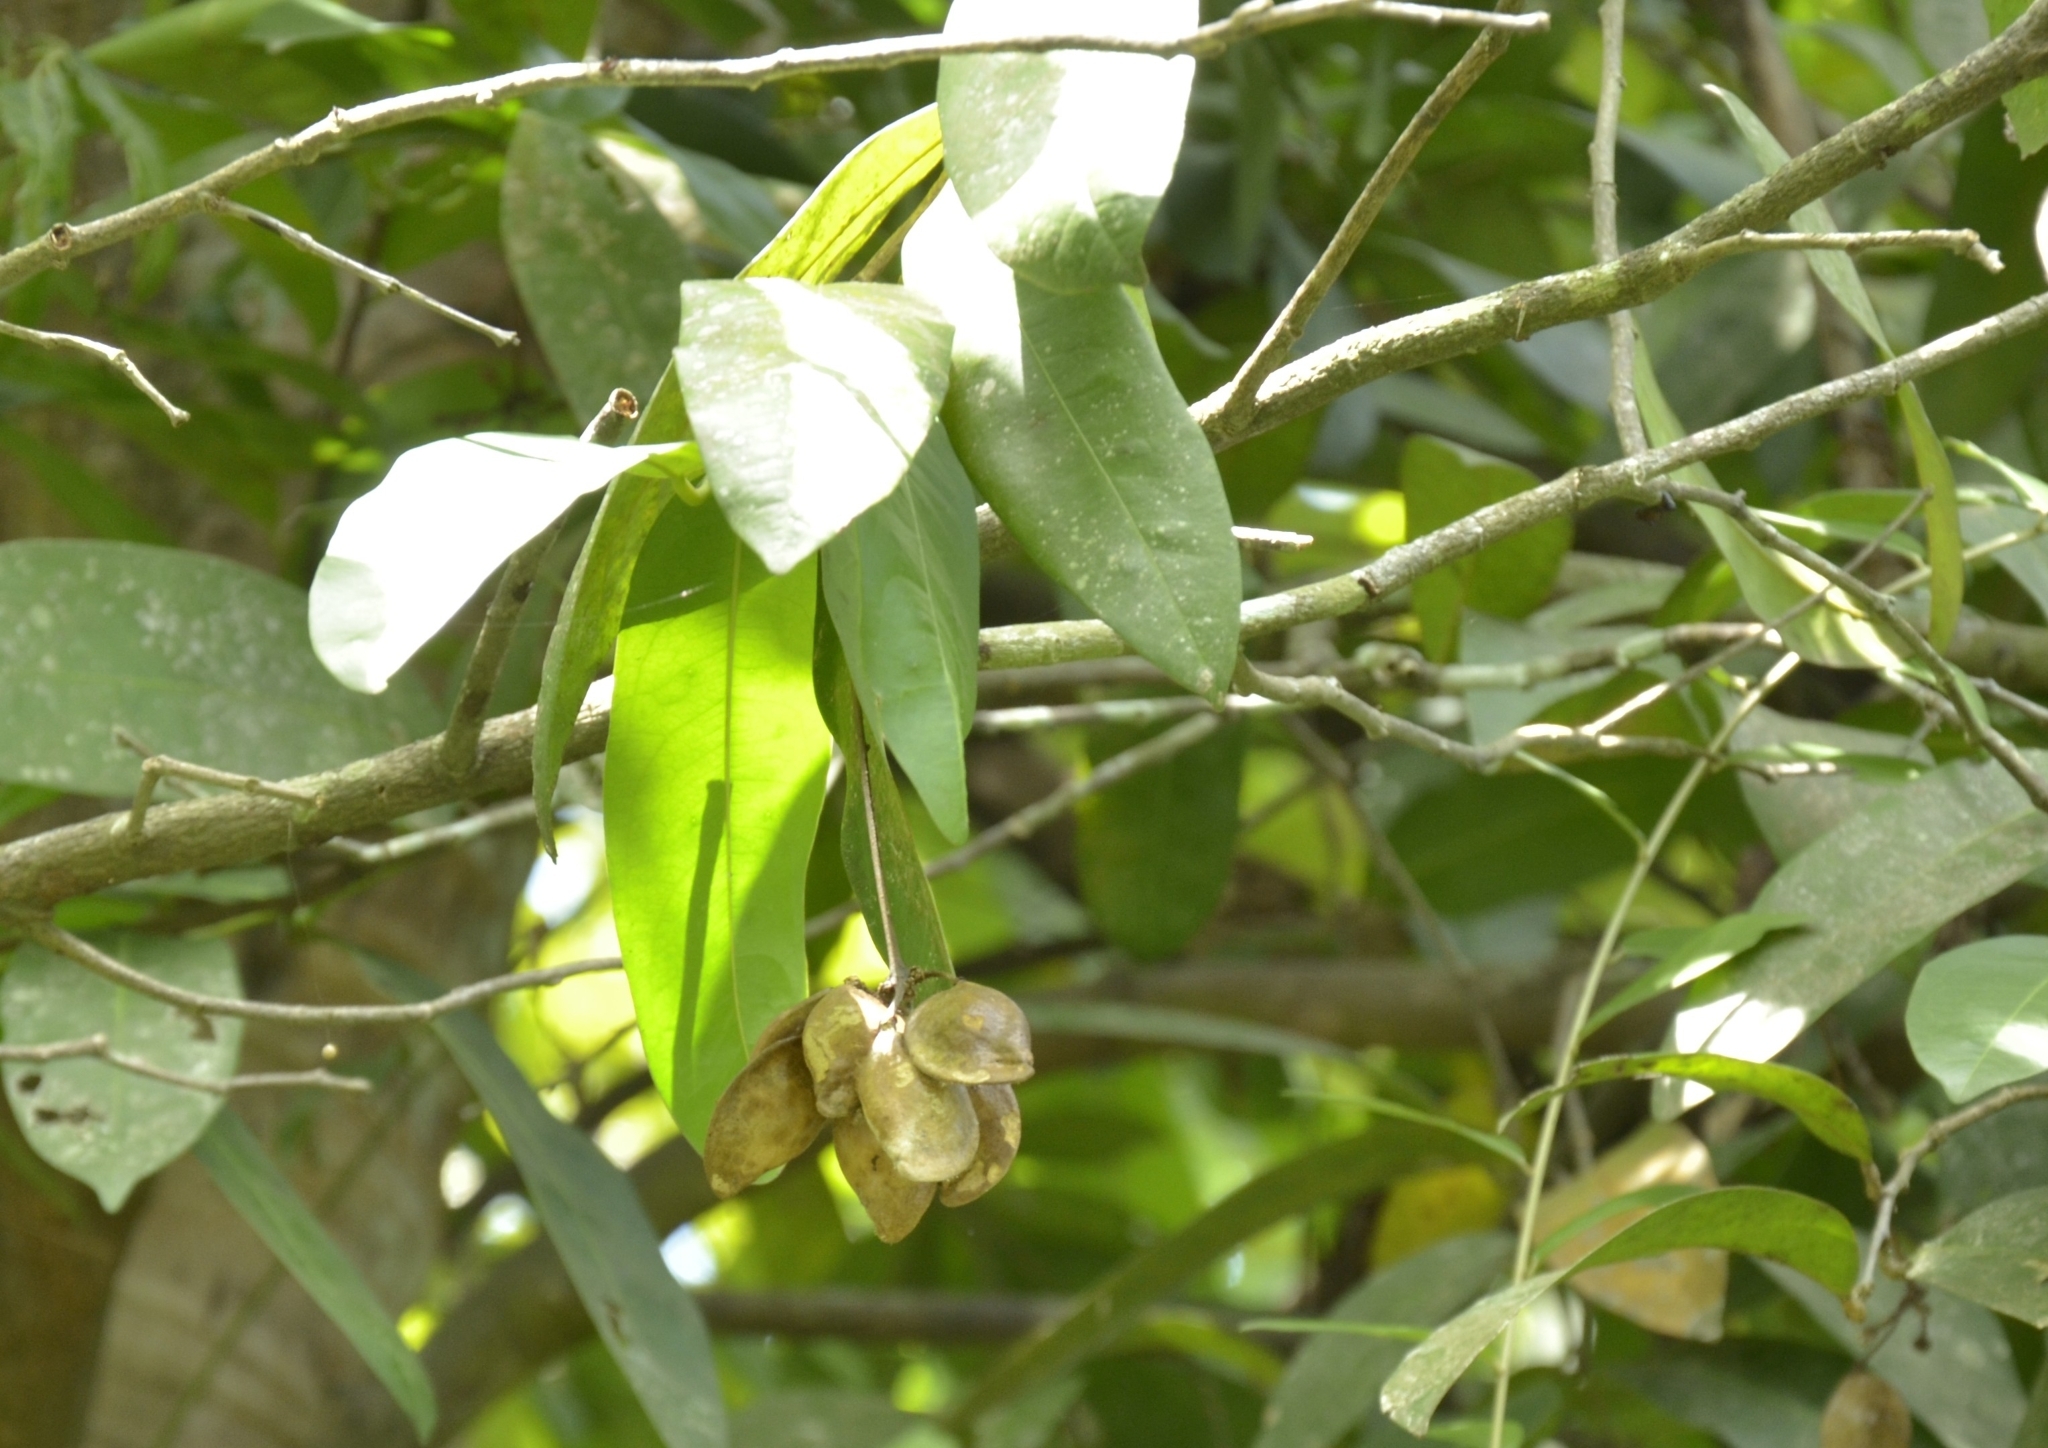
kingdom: Plantae
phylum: Tracheophyta
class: Magnoliopsida
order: Sapindales
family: Simaroubaceae
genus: Samadera
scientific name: Samadera indica
